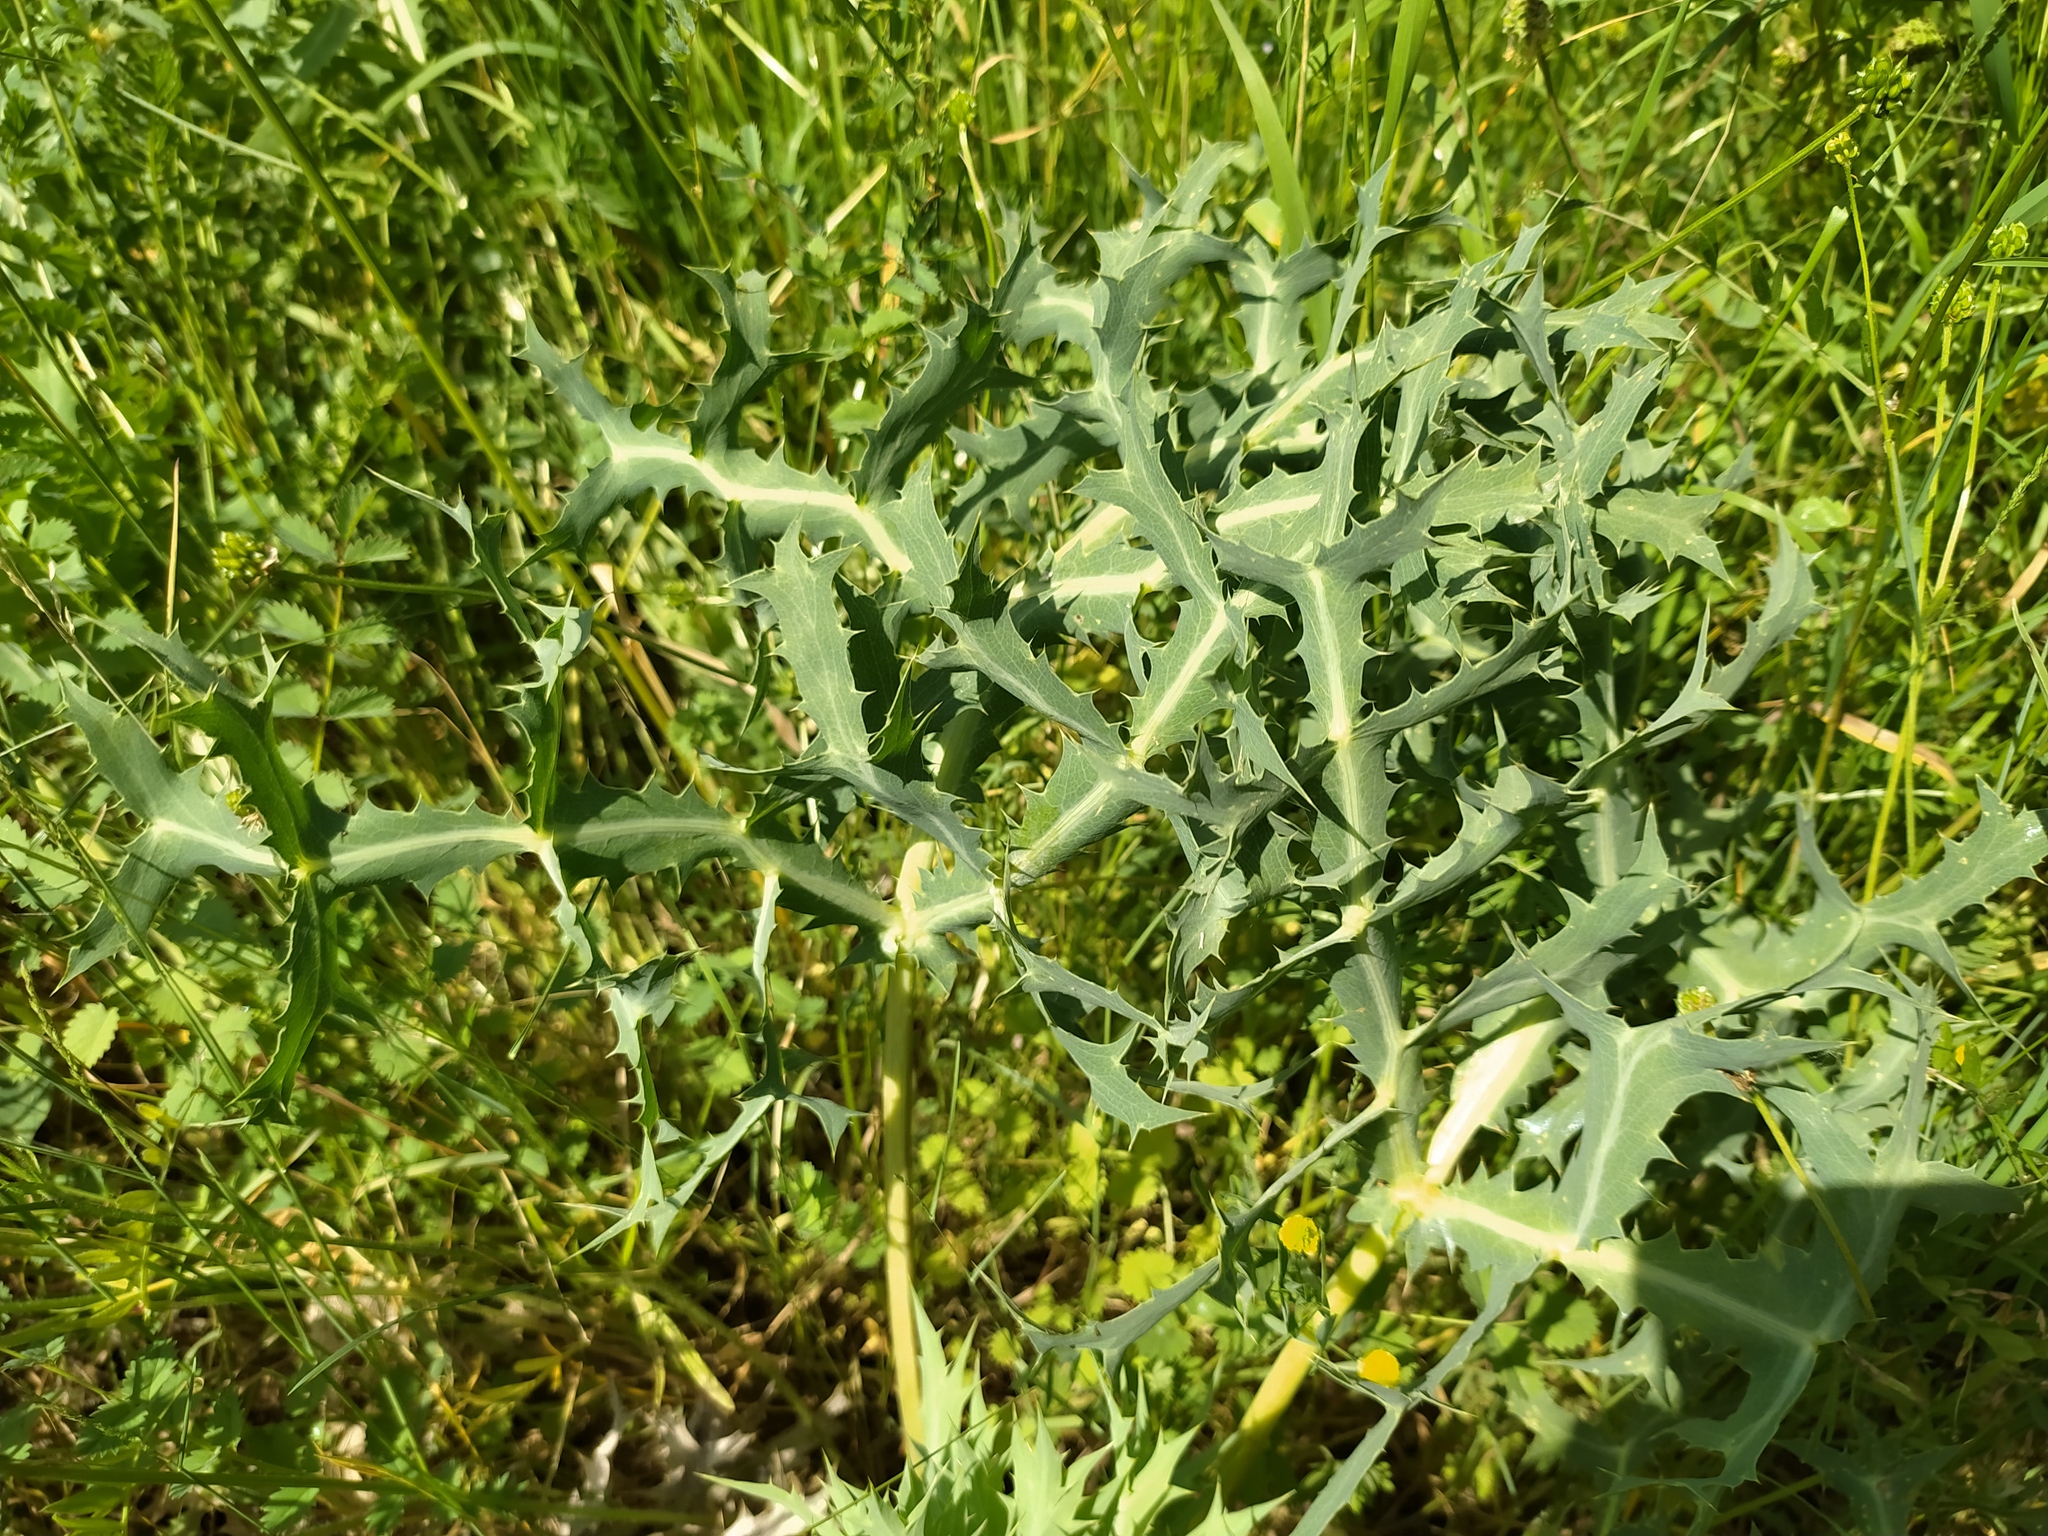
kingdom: Plantae
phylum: Tracheophyta
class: Magnoliopsida
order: Apiales
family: Apiaceae
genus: Eryngium
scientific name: Eryngium campestre
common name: Field eryngo
